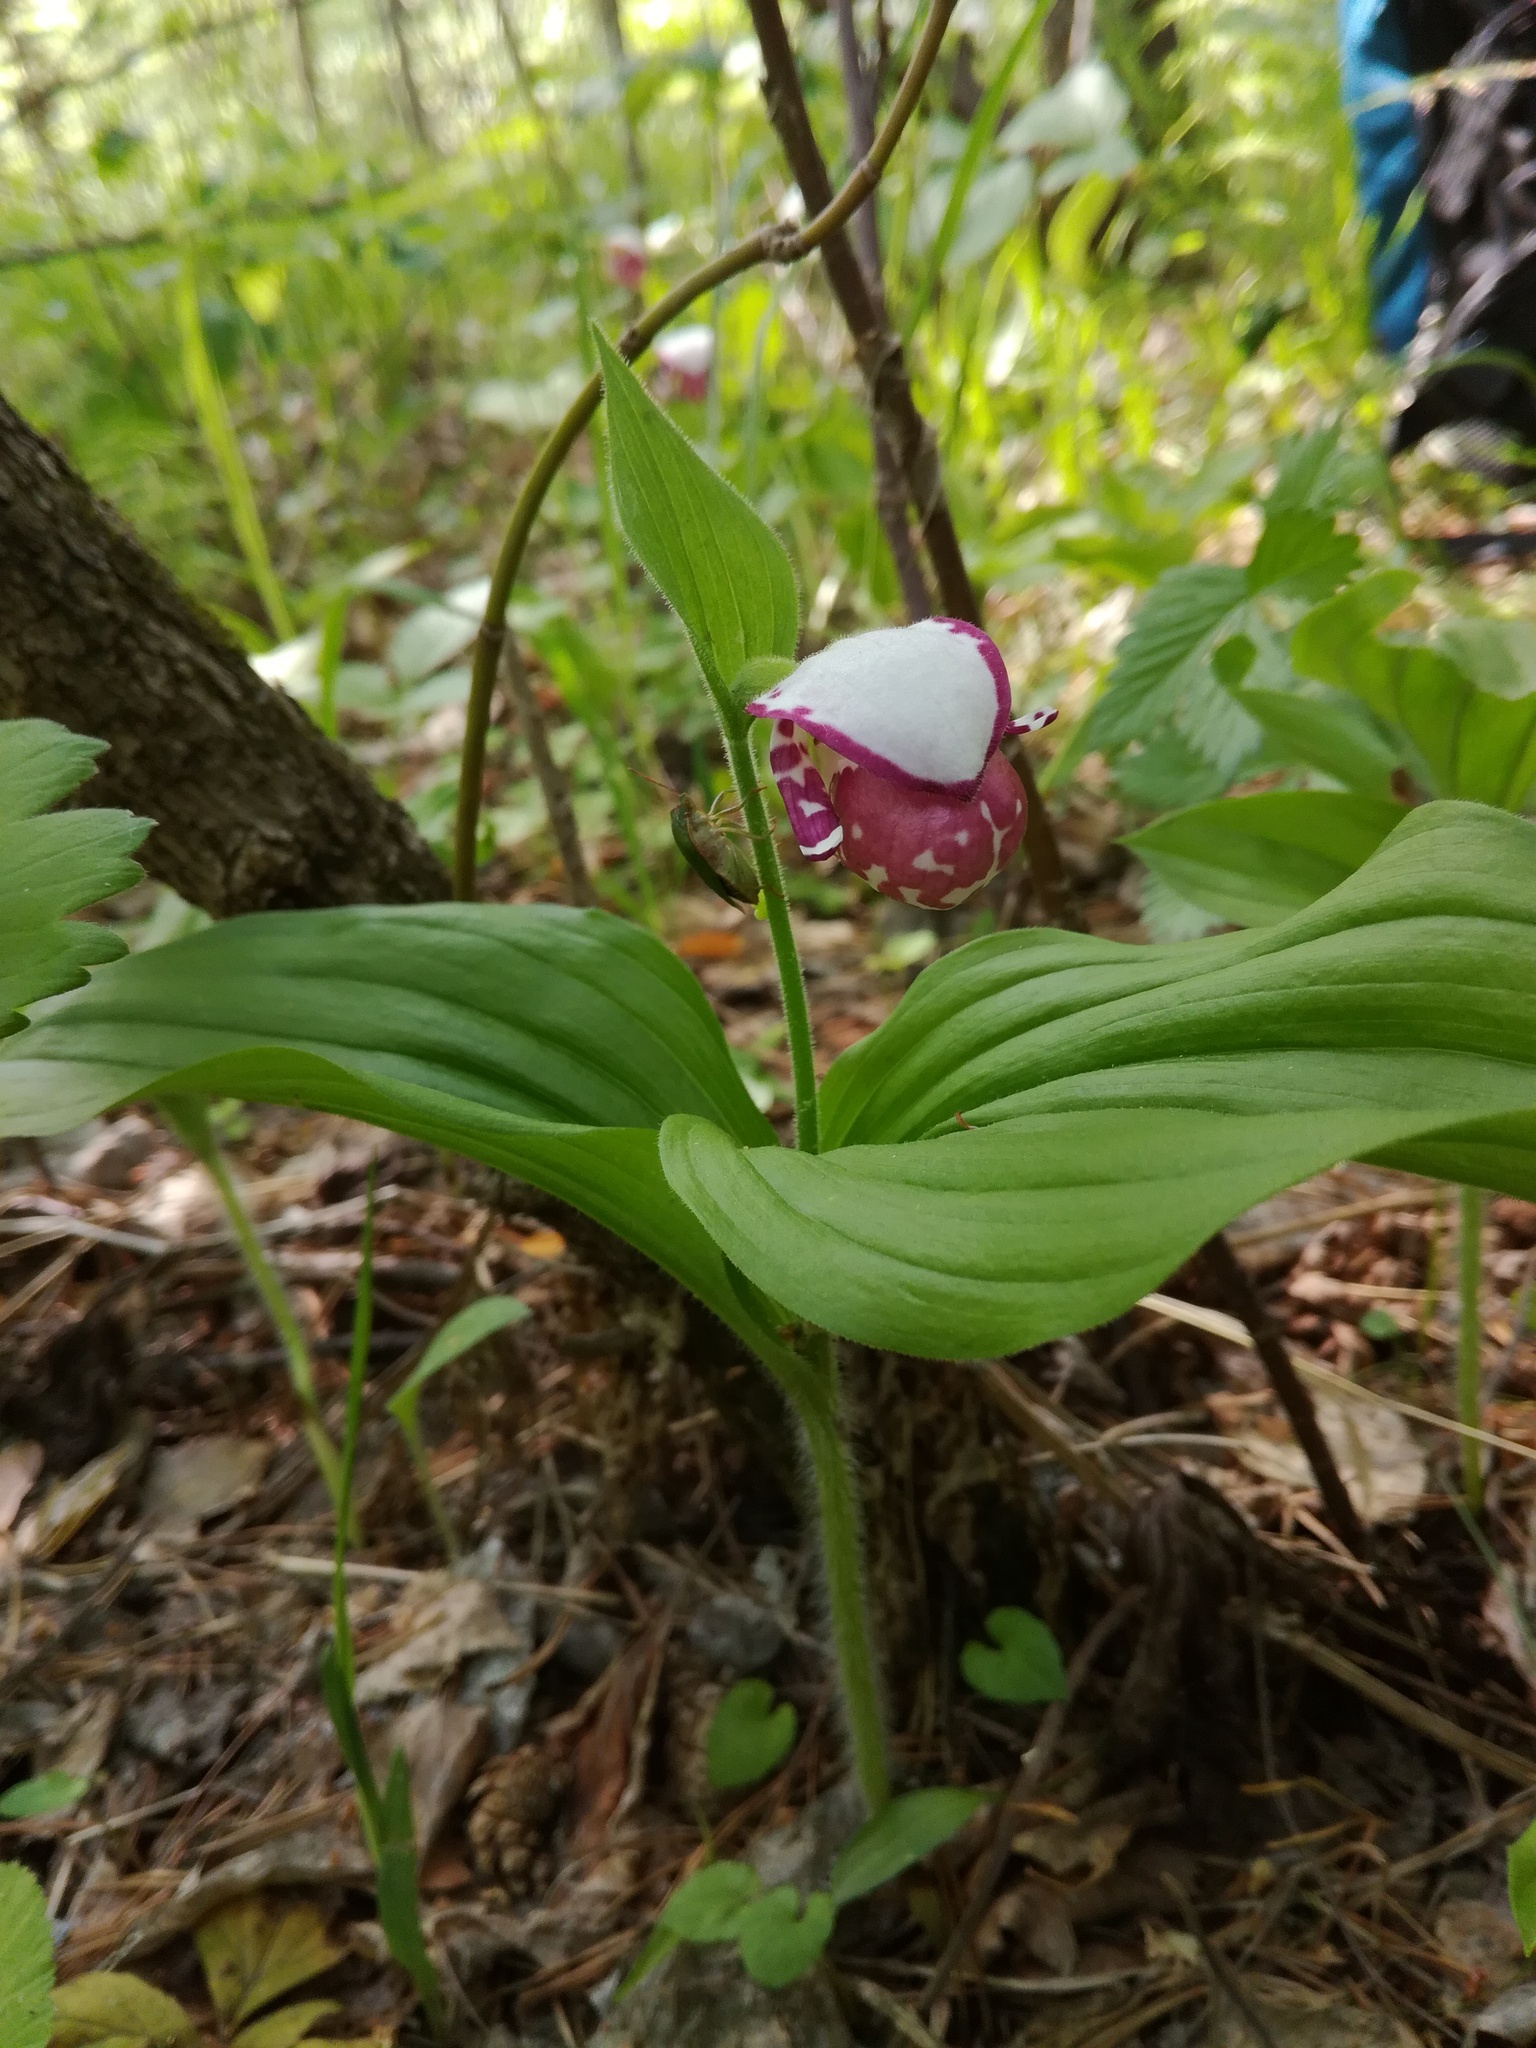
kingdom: Plantae
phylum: Tracheophyta
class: Liliopsida
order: Asparagales
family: Orchidaceae
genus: Cypripedium
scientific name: Cypripedium guttatum
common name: Pink lady slipper
